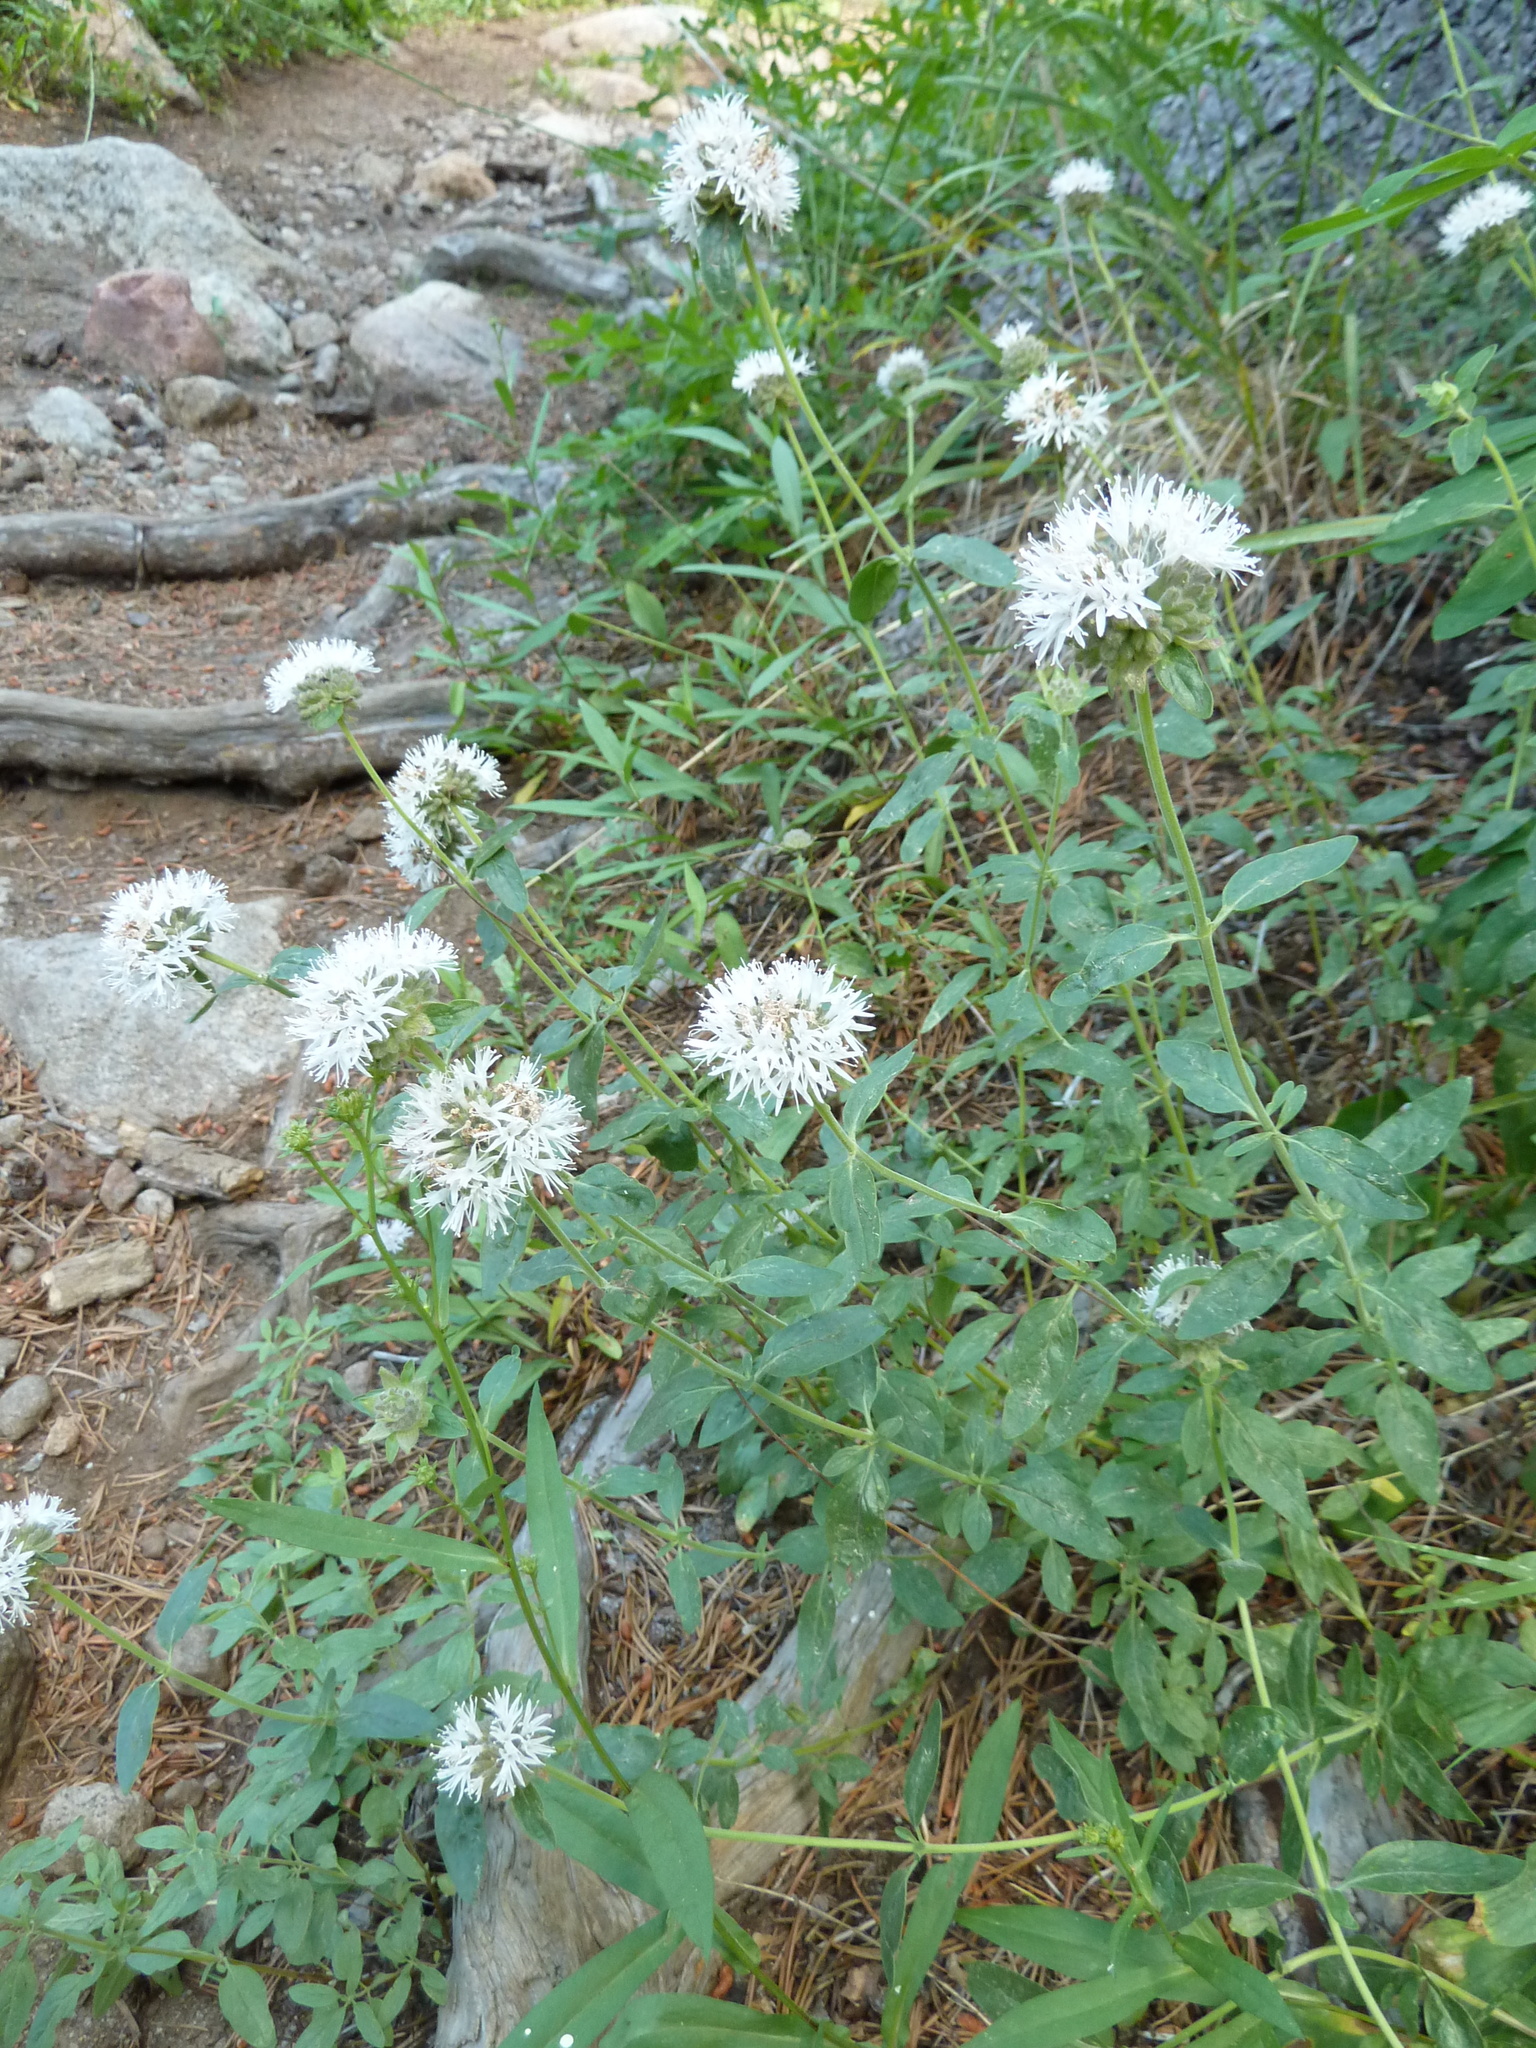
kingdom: Plantae
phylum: Tracheophyta
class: Magnoliopsida
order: Lamiales
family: Lamiaceae
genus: Monardella
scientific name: Monardella odoratissima
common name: Pacific monardella
